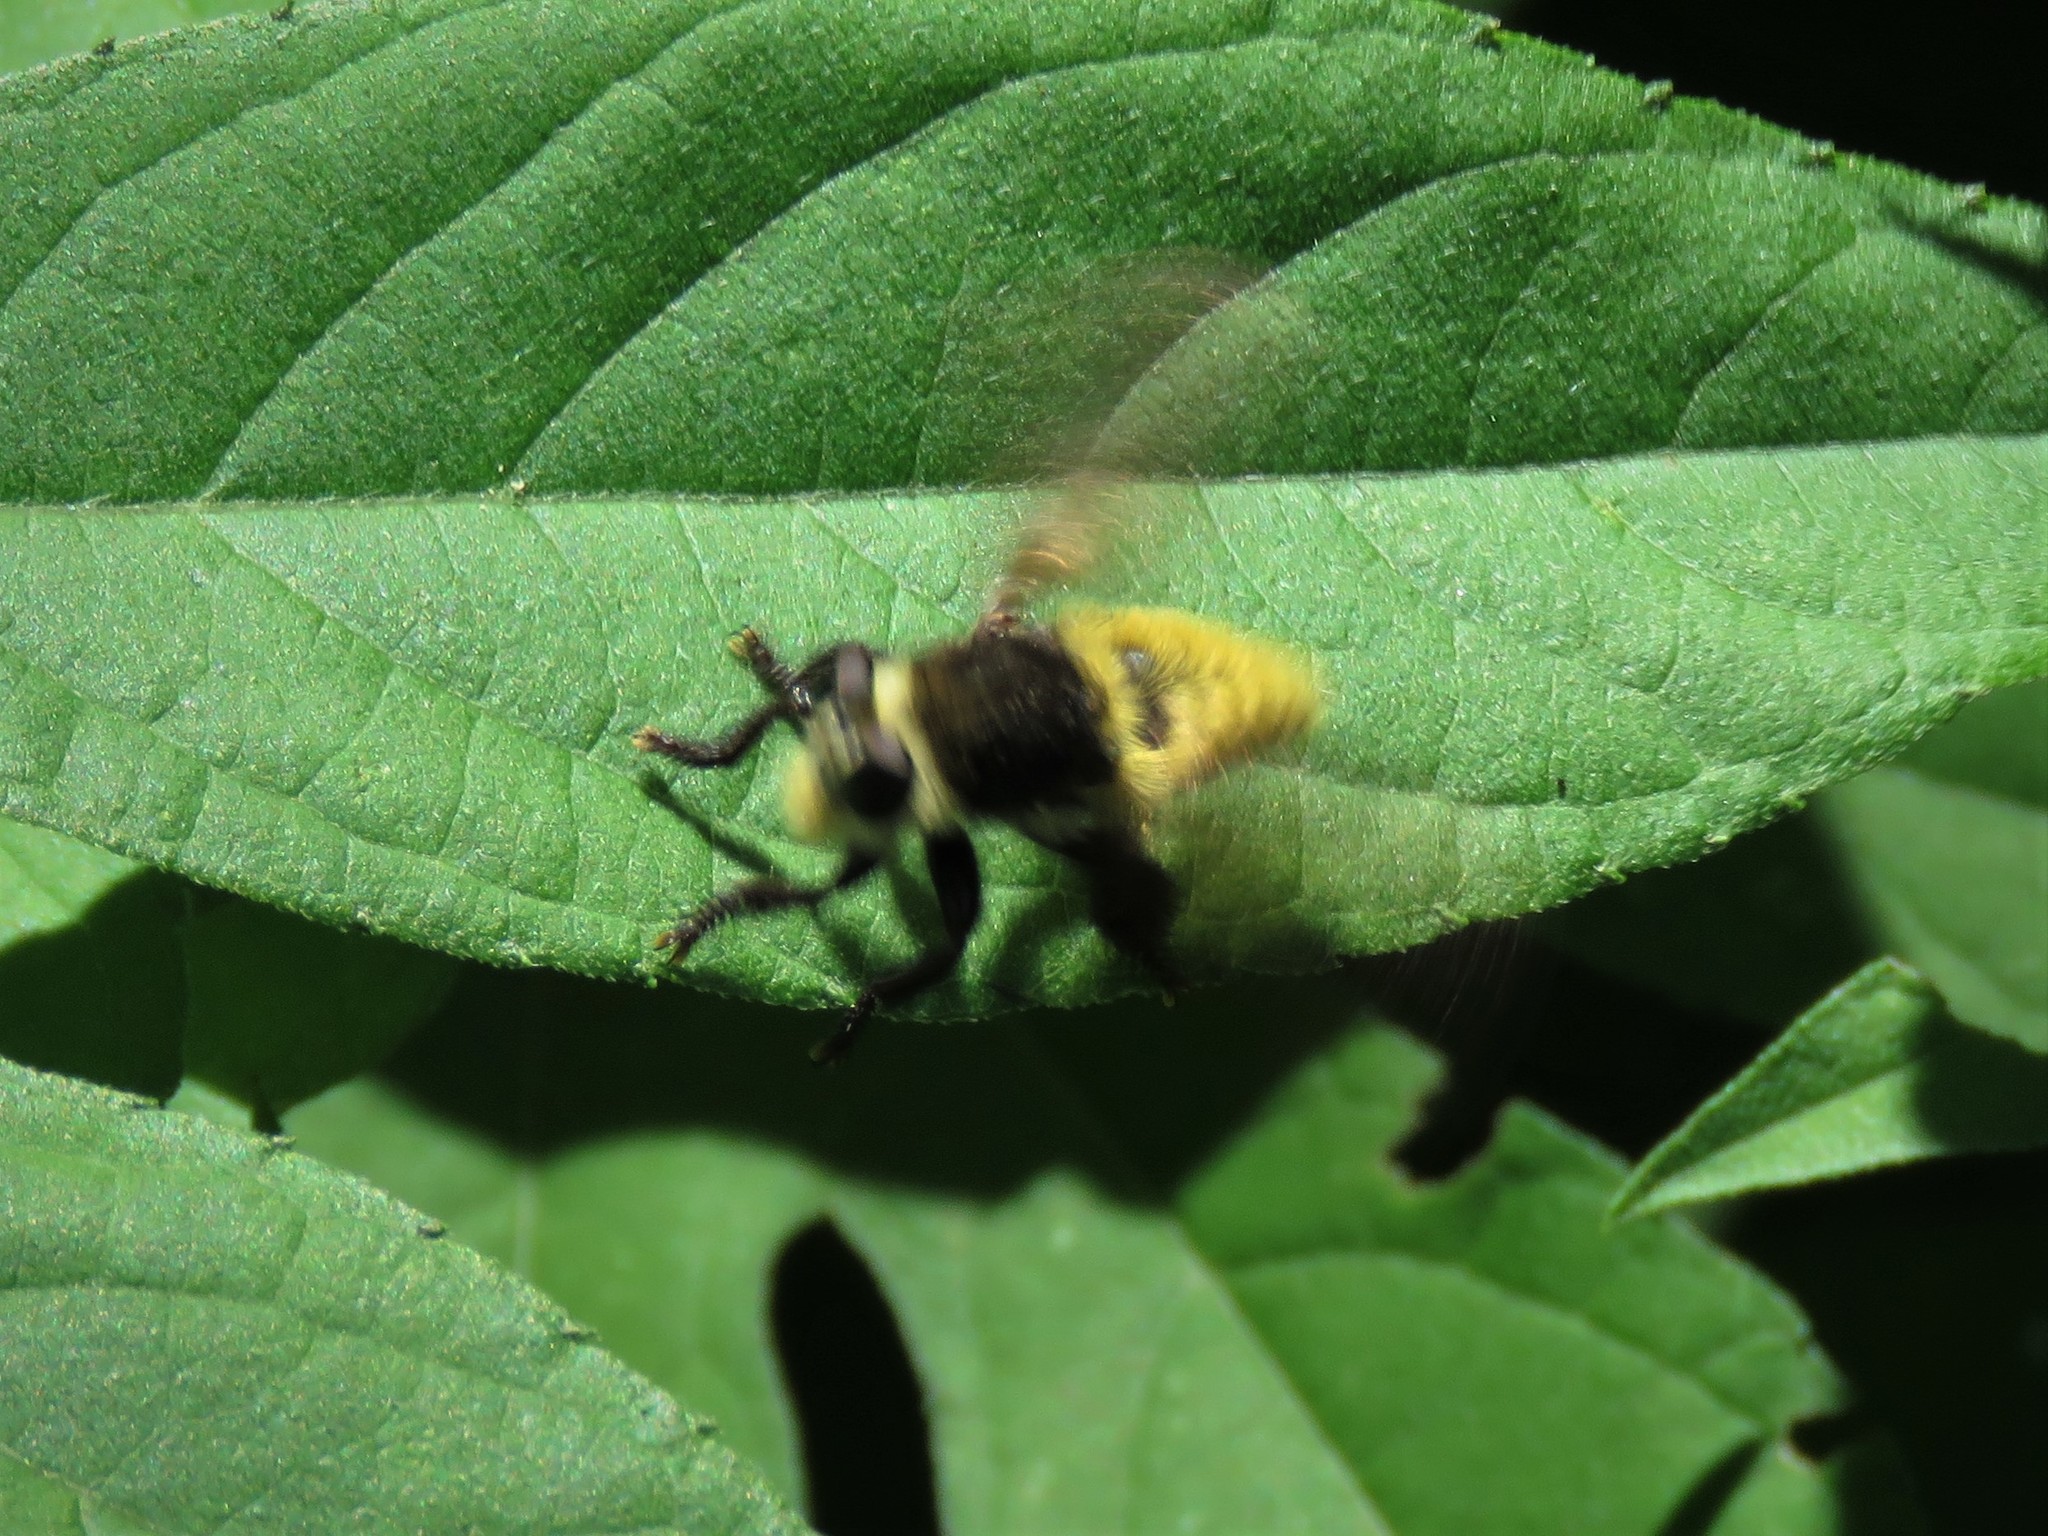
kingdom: Animalia
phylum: Arthropoda
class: Insecta
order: Diptera
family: Asilidae
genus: Mallophora
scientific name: Mallophora fautrix
